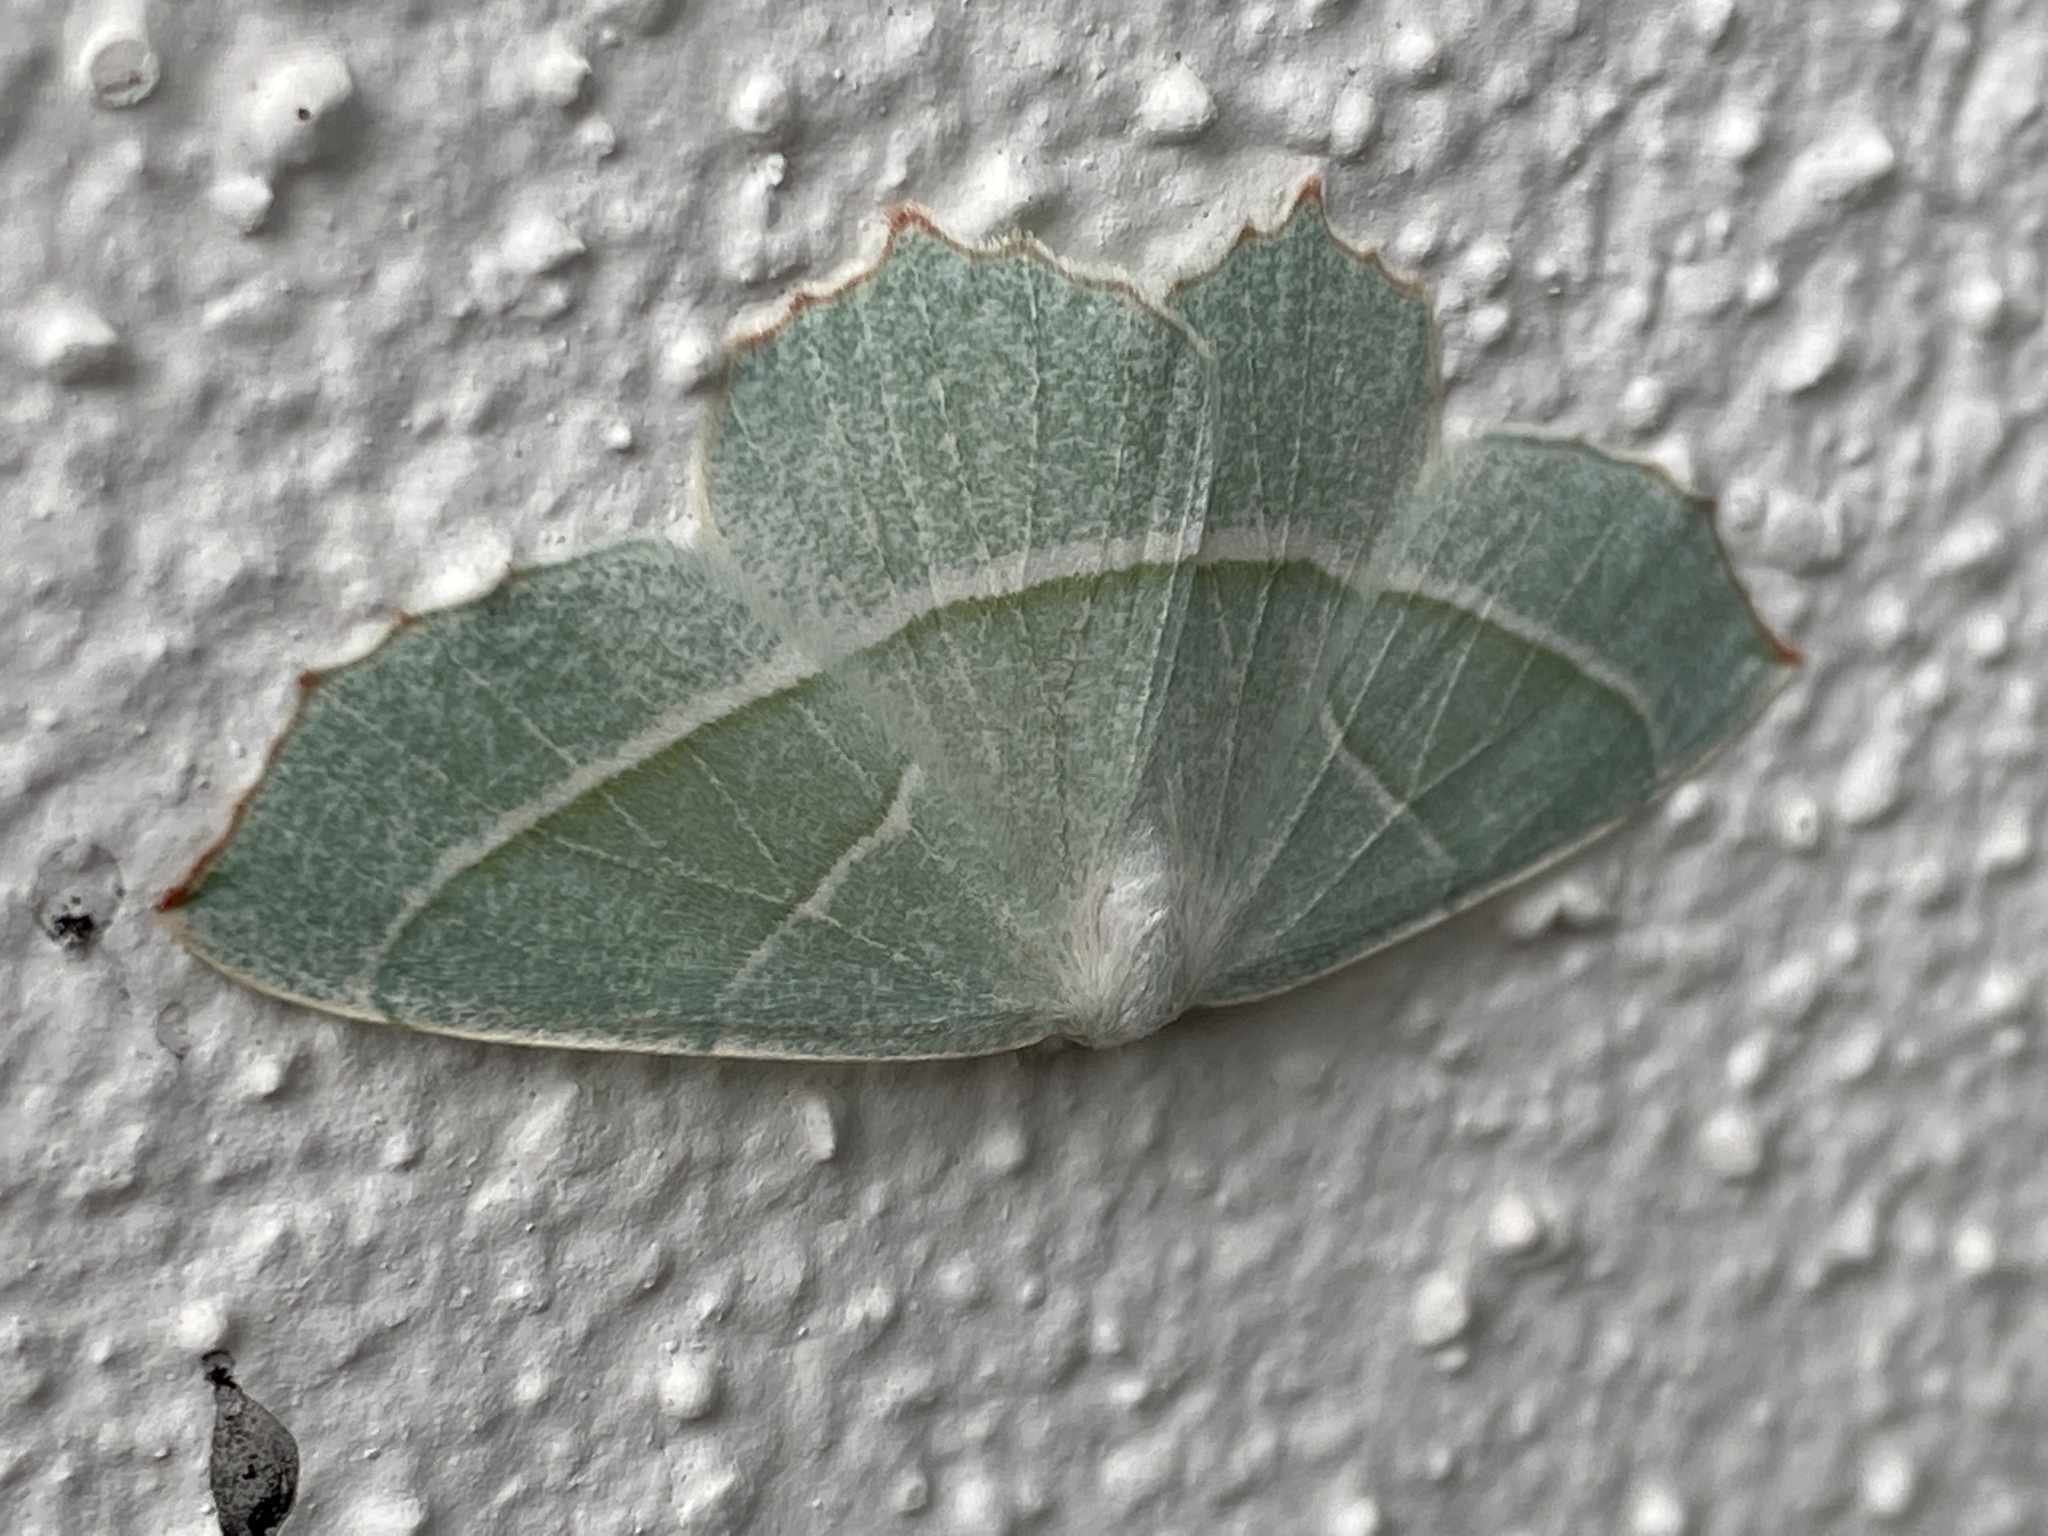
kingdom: Animalia
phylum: Arthropoda
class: Insecta
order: Lepidoptera
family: Geometridae
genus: Campaea
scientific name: Campaea margaritaria
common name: Light emerald
